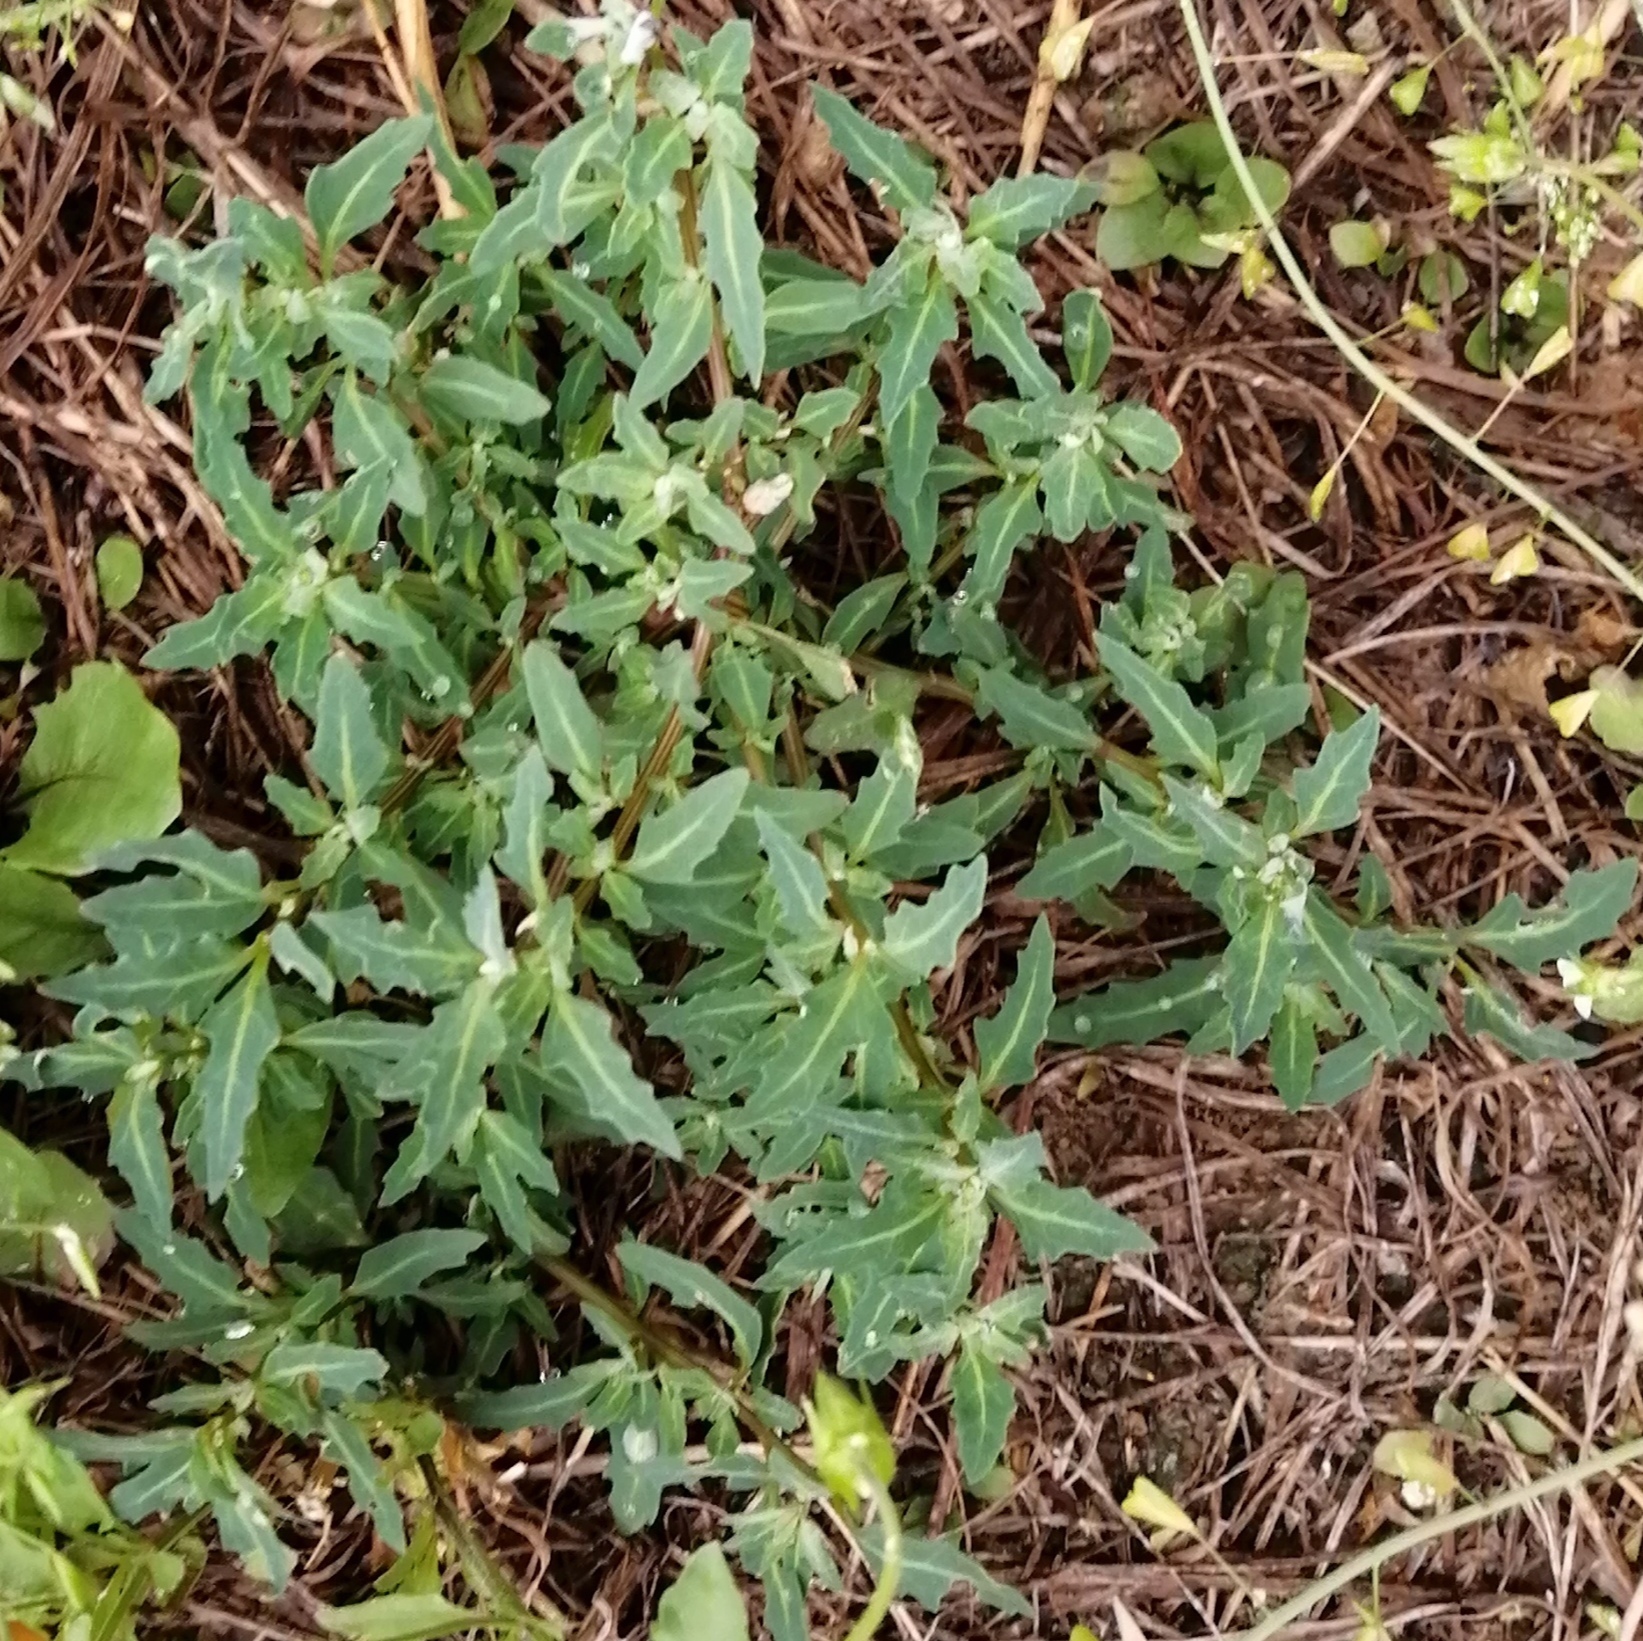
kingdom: Plantae
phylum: Tracheophyta
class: Magnoliopsida
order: Caryophyllales
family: Amaranthaceae
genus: Oxybasis
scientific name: Oxybasis glauca
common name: Glaucous goosefoot
